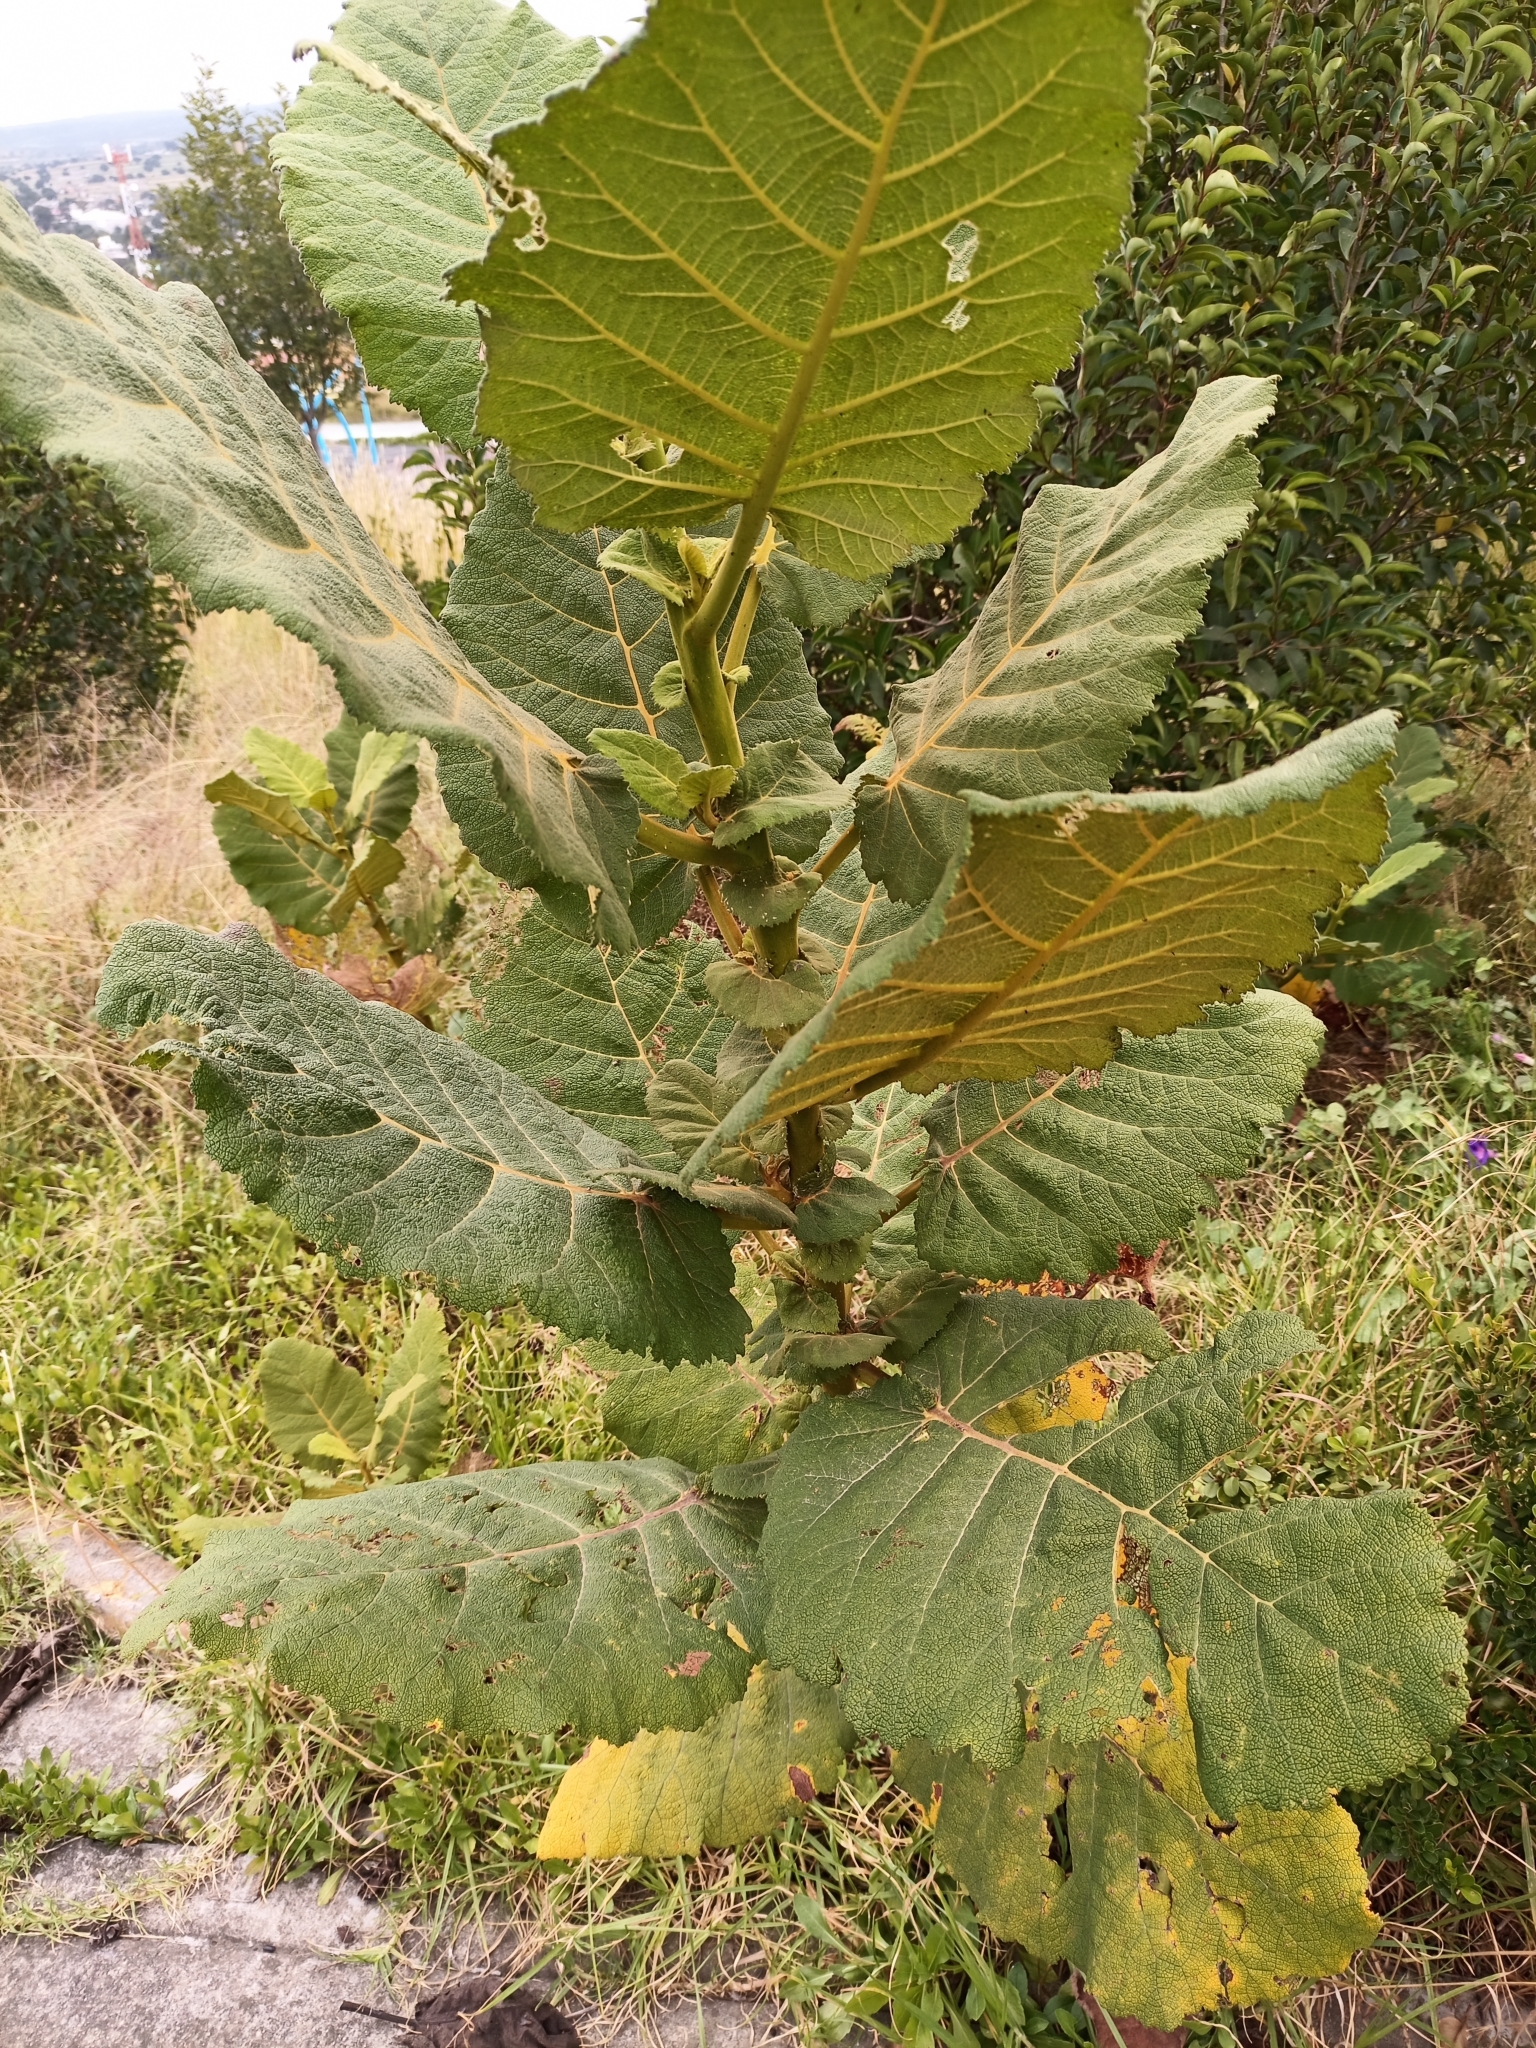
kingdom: Plantae
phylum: Tracheophyta
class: Magnoliopsida
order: Boraginales
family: Namaceae
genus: Wigandia
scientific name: Wigandia urens
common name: Caracus wigandia
